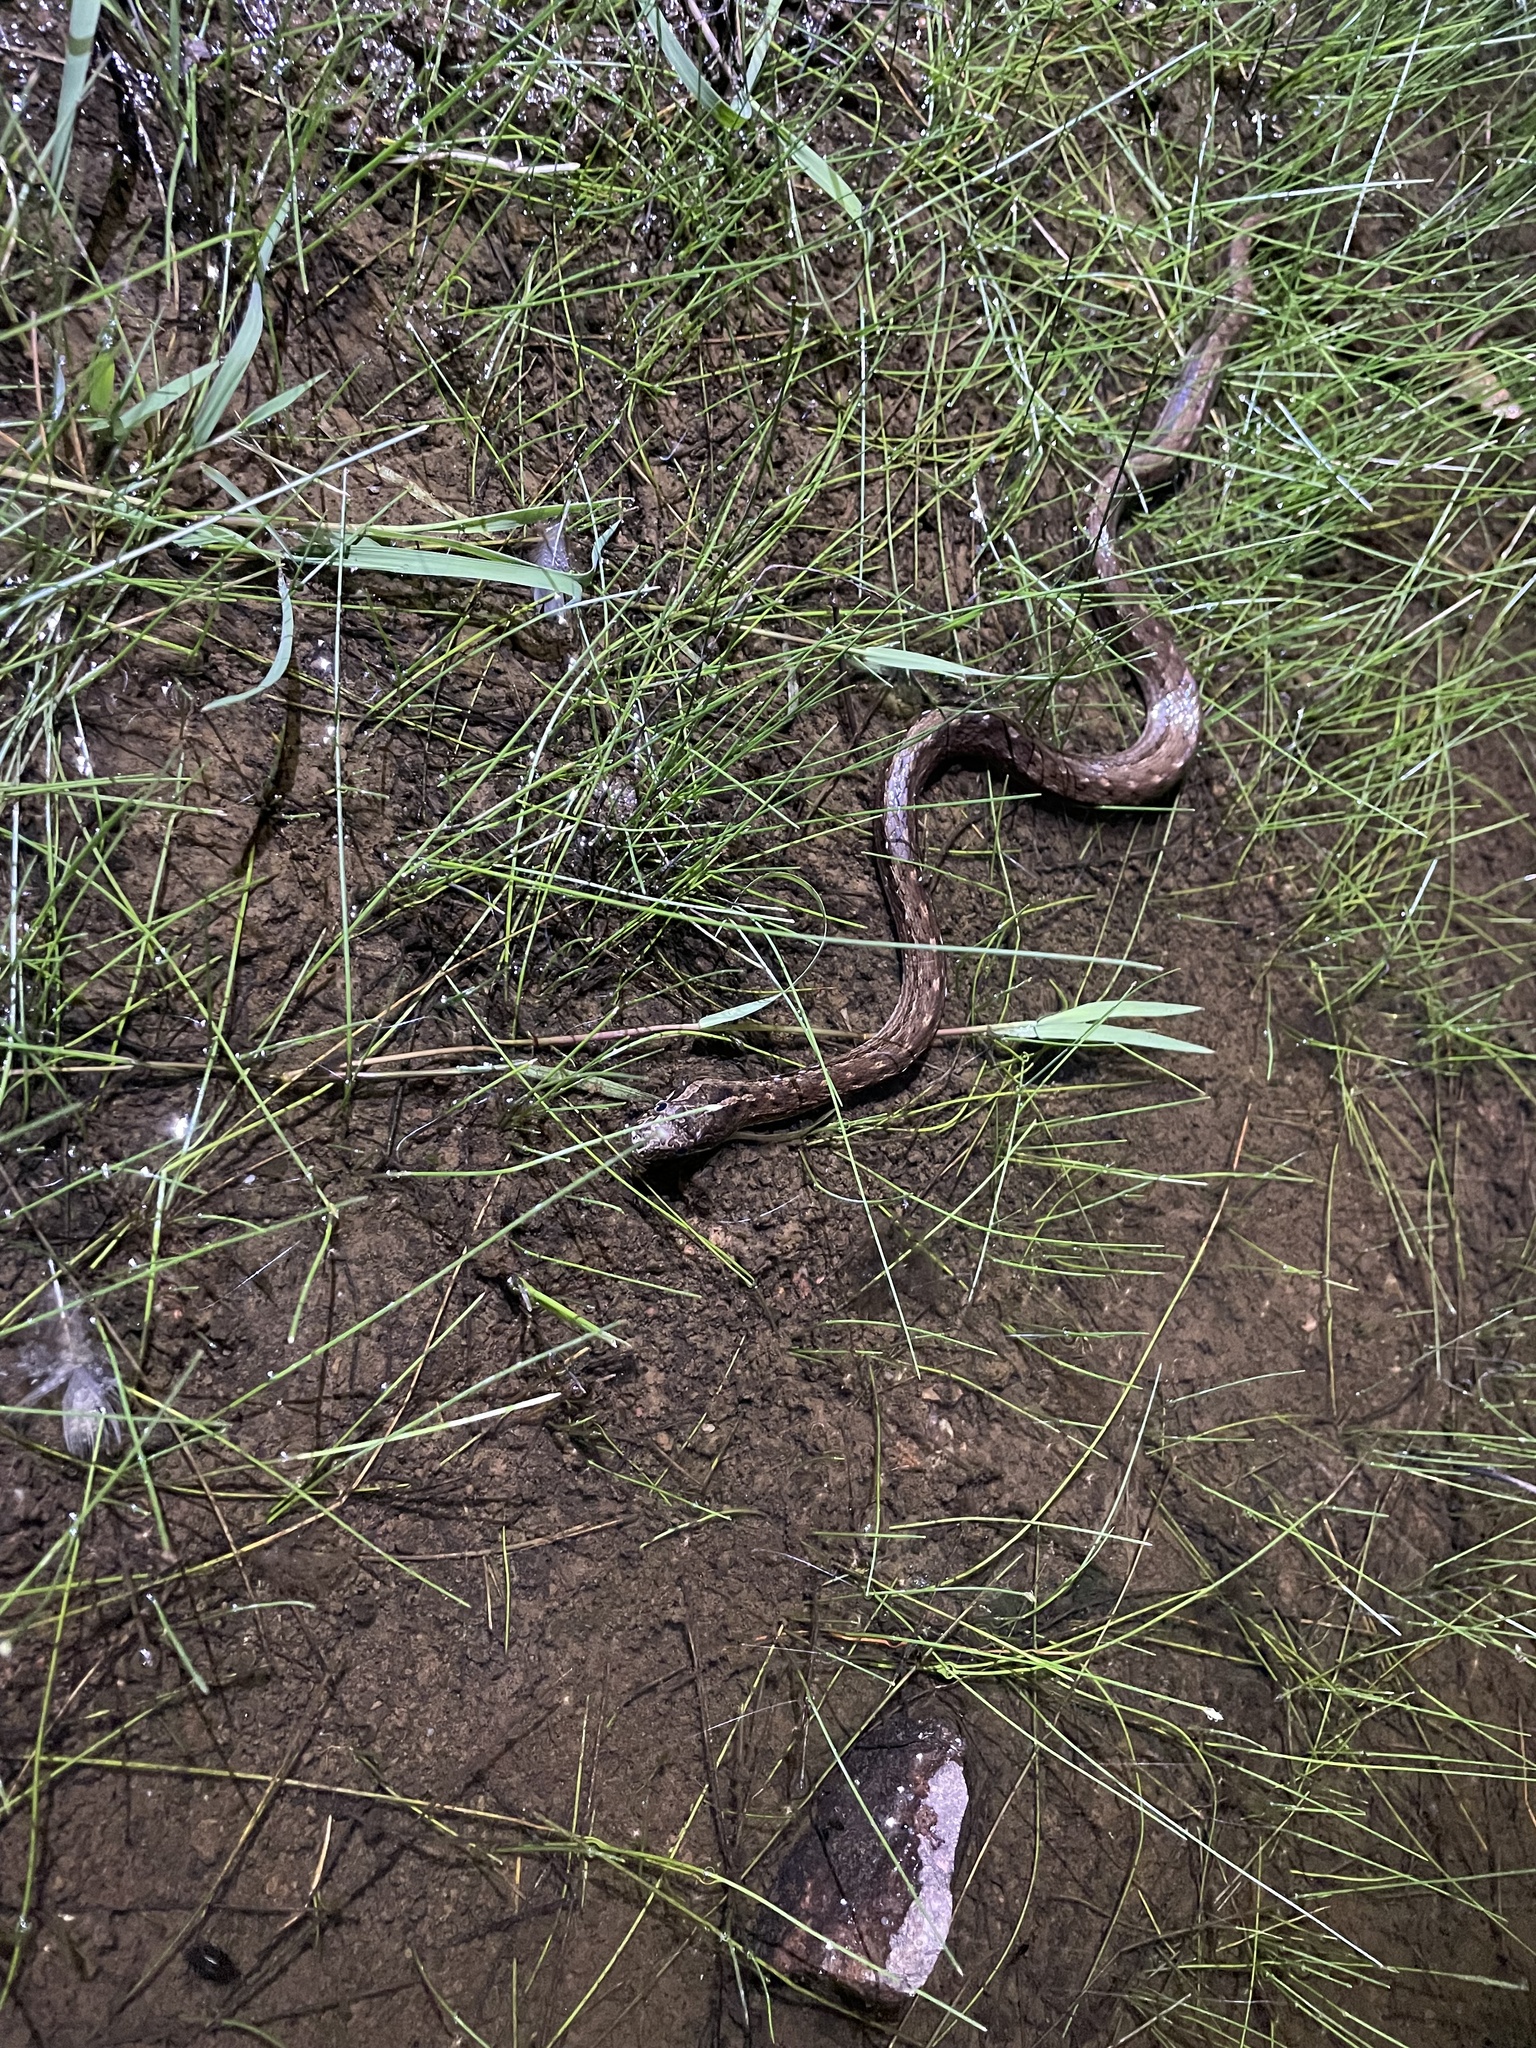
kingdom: Animalia
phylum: Chordata
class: Squamata
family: Colubridae
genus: Mesotes
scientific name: Mesotes
